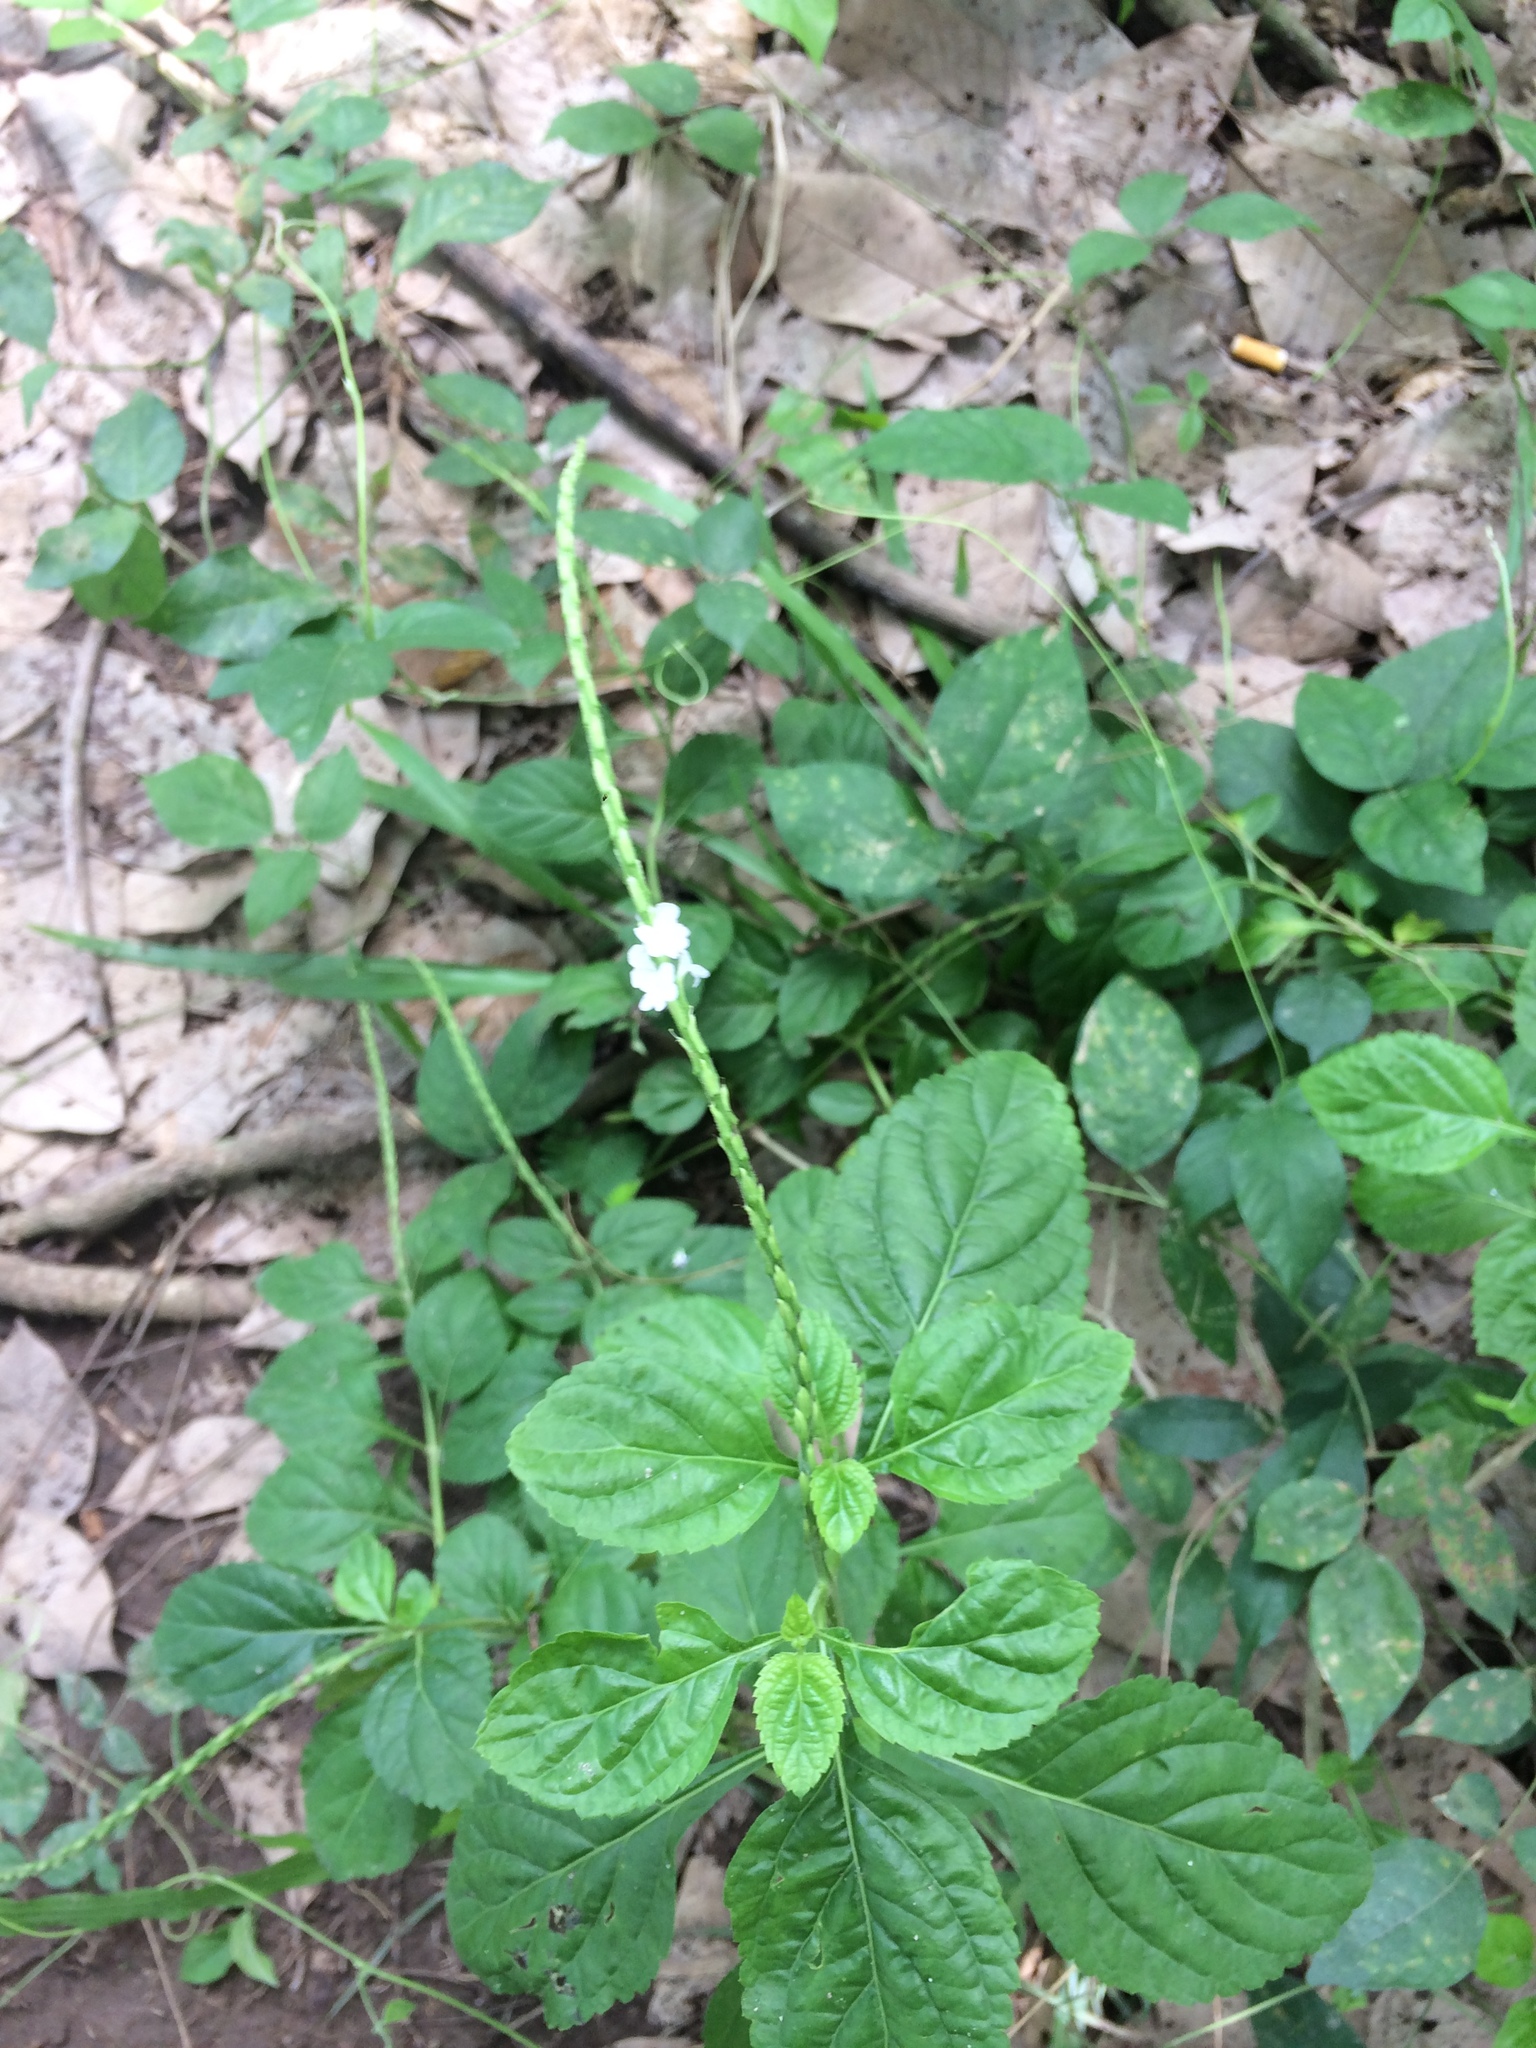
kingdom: Plantae
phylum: Tracheophyta
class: Magnoliopsida
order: Lamiales
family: Verbenaceae
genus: Stachytarpheta
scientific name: Stachytarpheta cayennensis
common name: Cayenne porterweed
